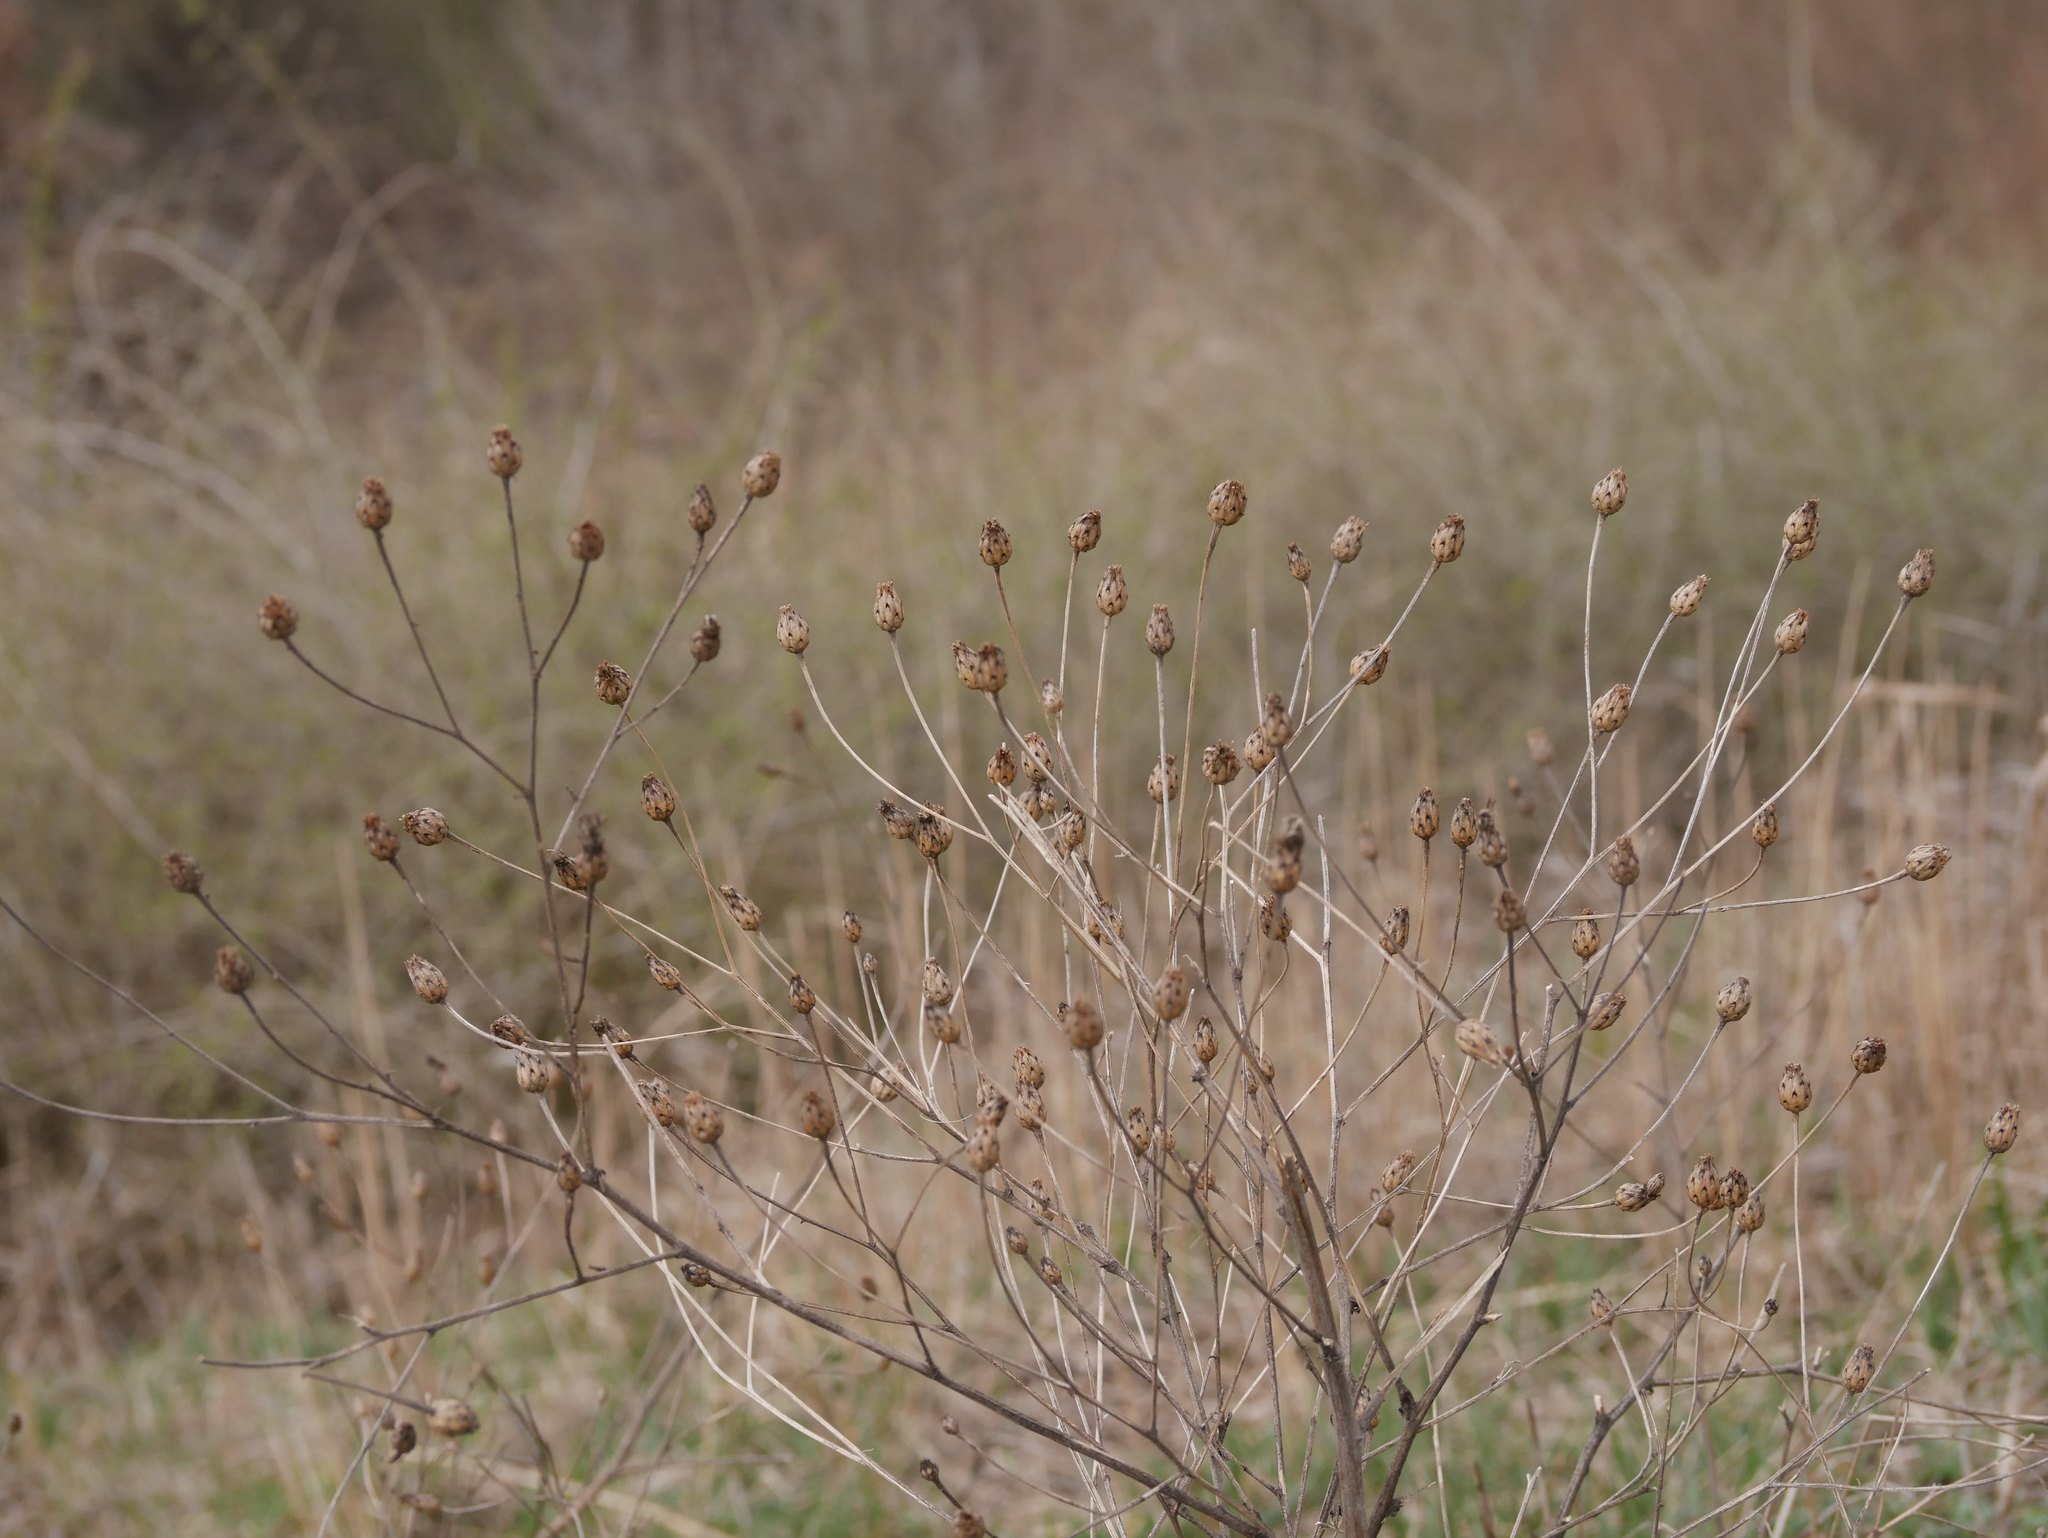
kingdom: Plantae
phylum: Tracheophyta
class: Magnoliopsida
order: Asterales
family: Asteraceae
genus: Centaurea
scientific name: Centaurea stoebe
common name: Spotted knapweed
